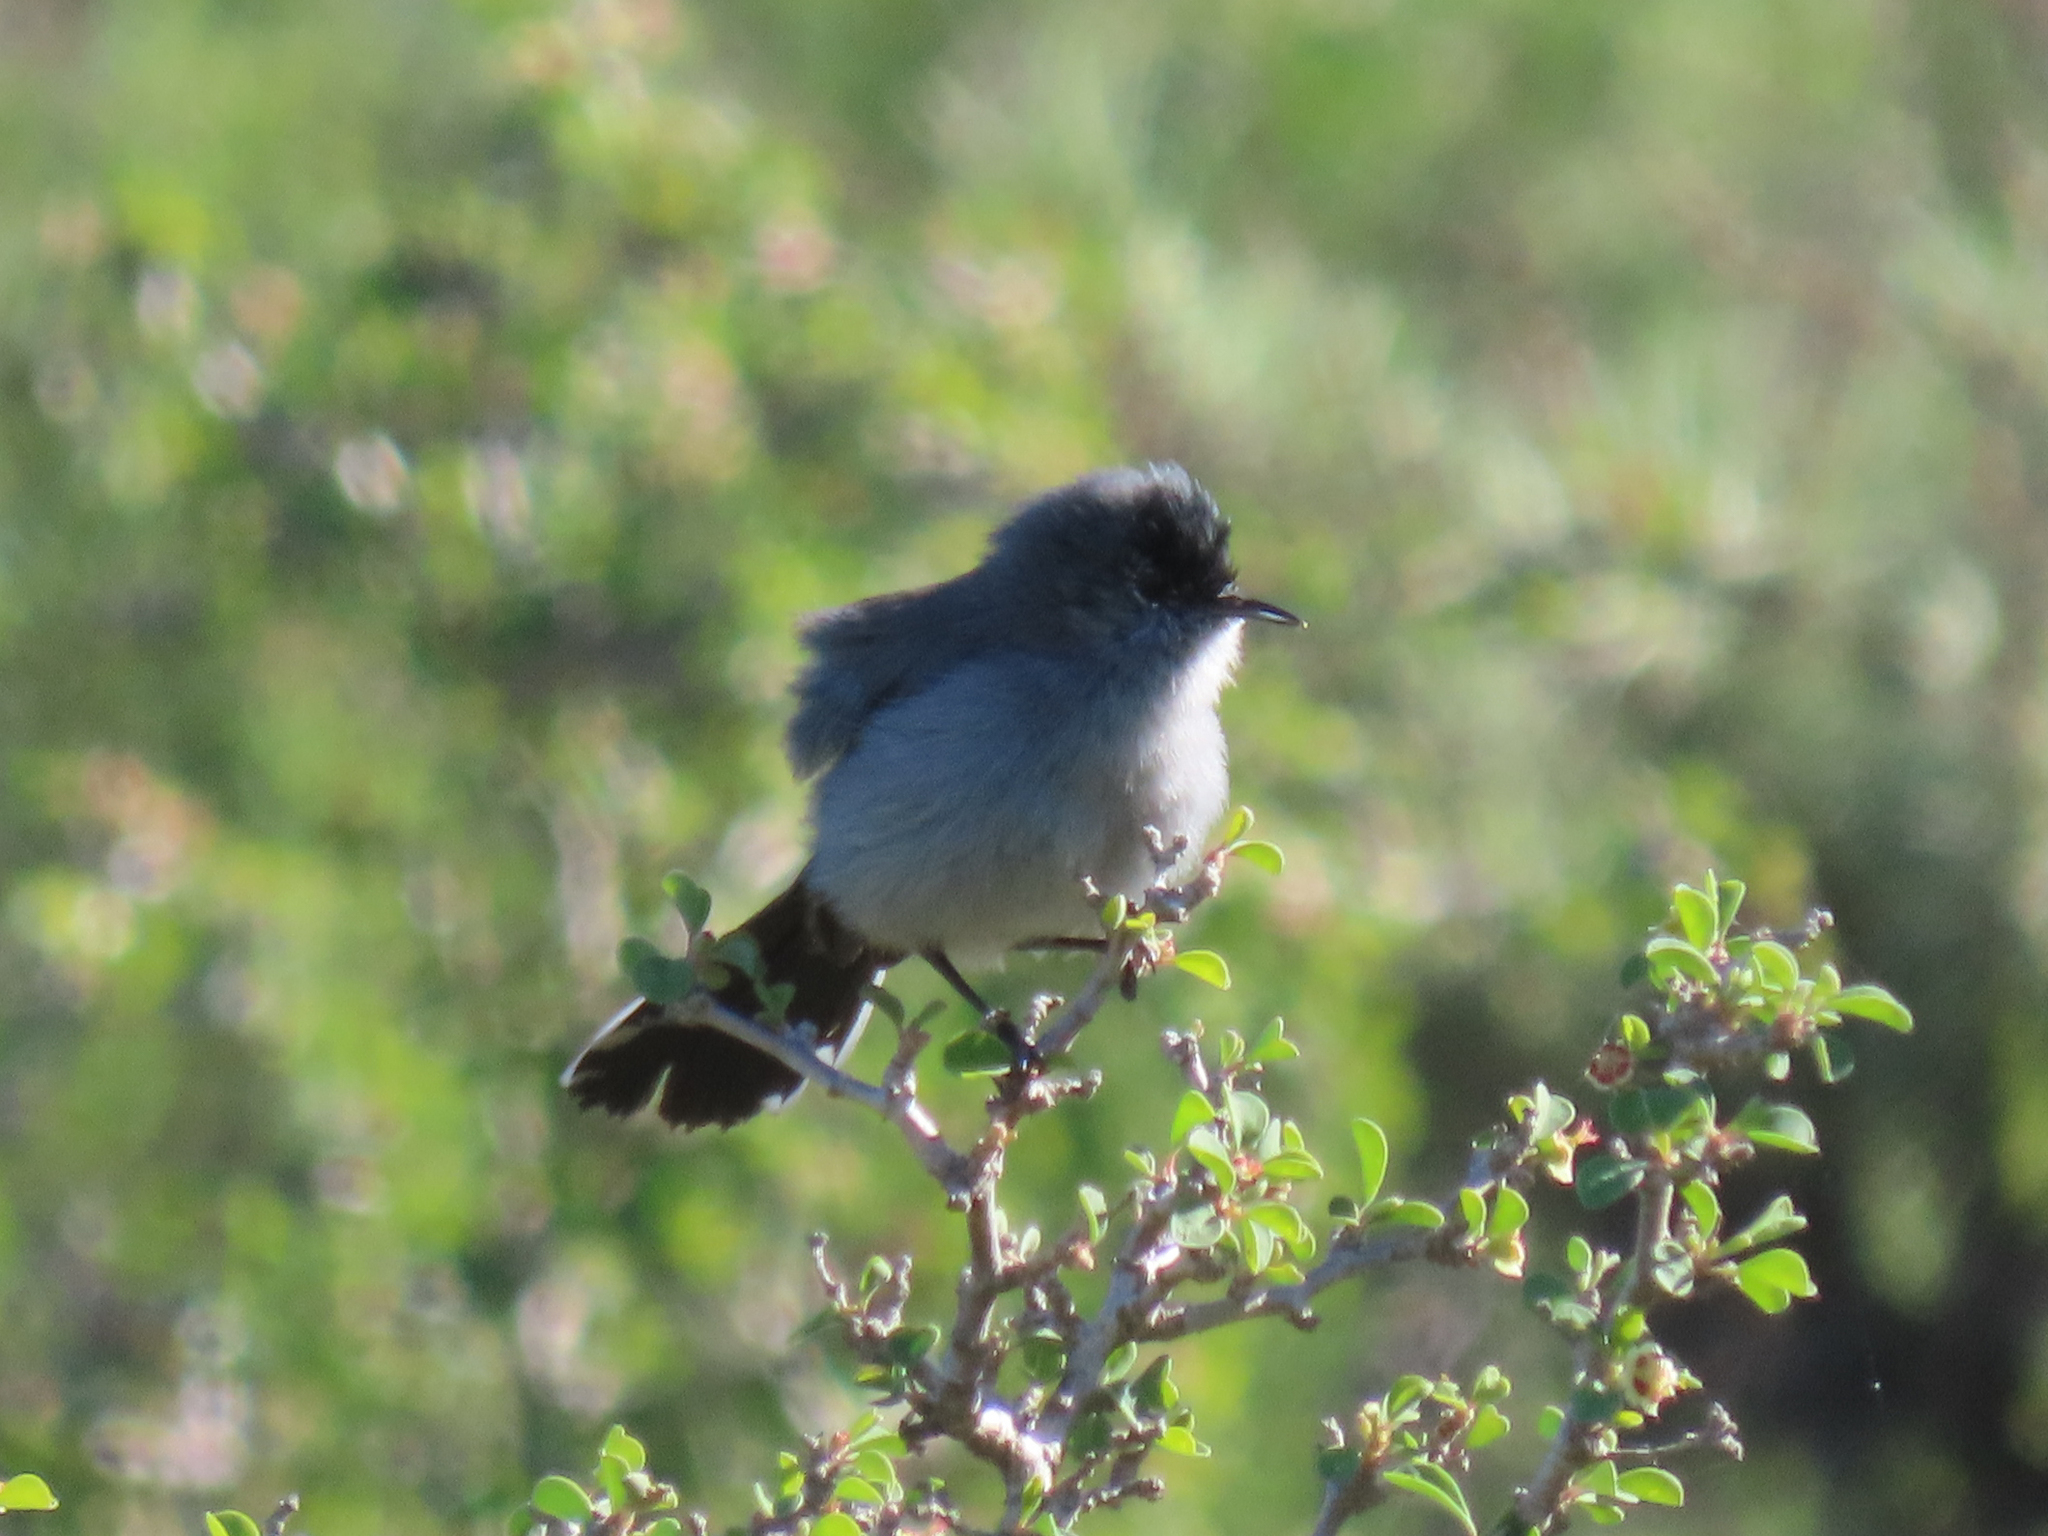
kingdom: Animalia
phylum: Chordata
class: Aves
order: Passeriformes
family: Polioptilidae
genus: Polioptila
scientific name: Polioptila californica
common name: California gnatcatcher
